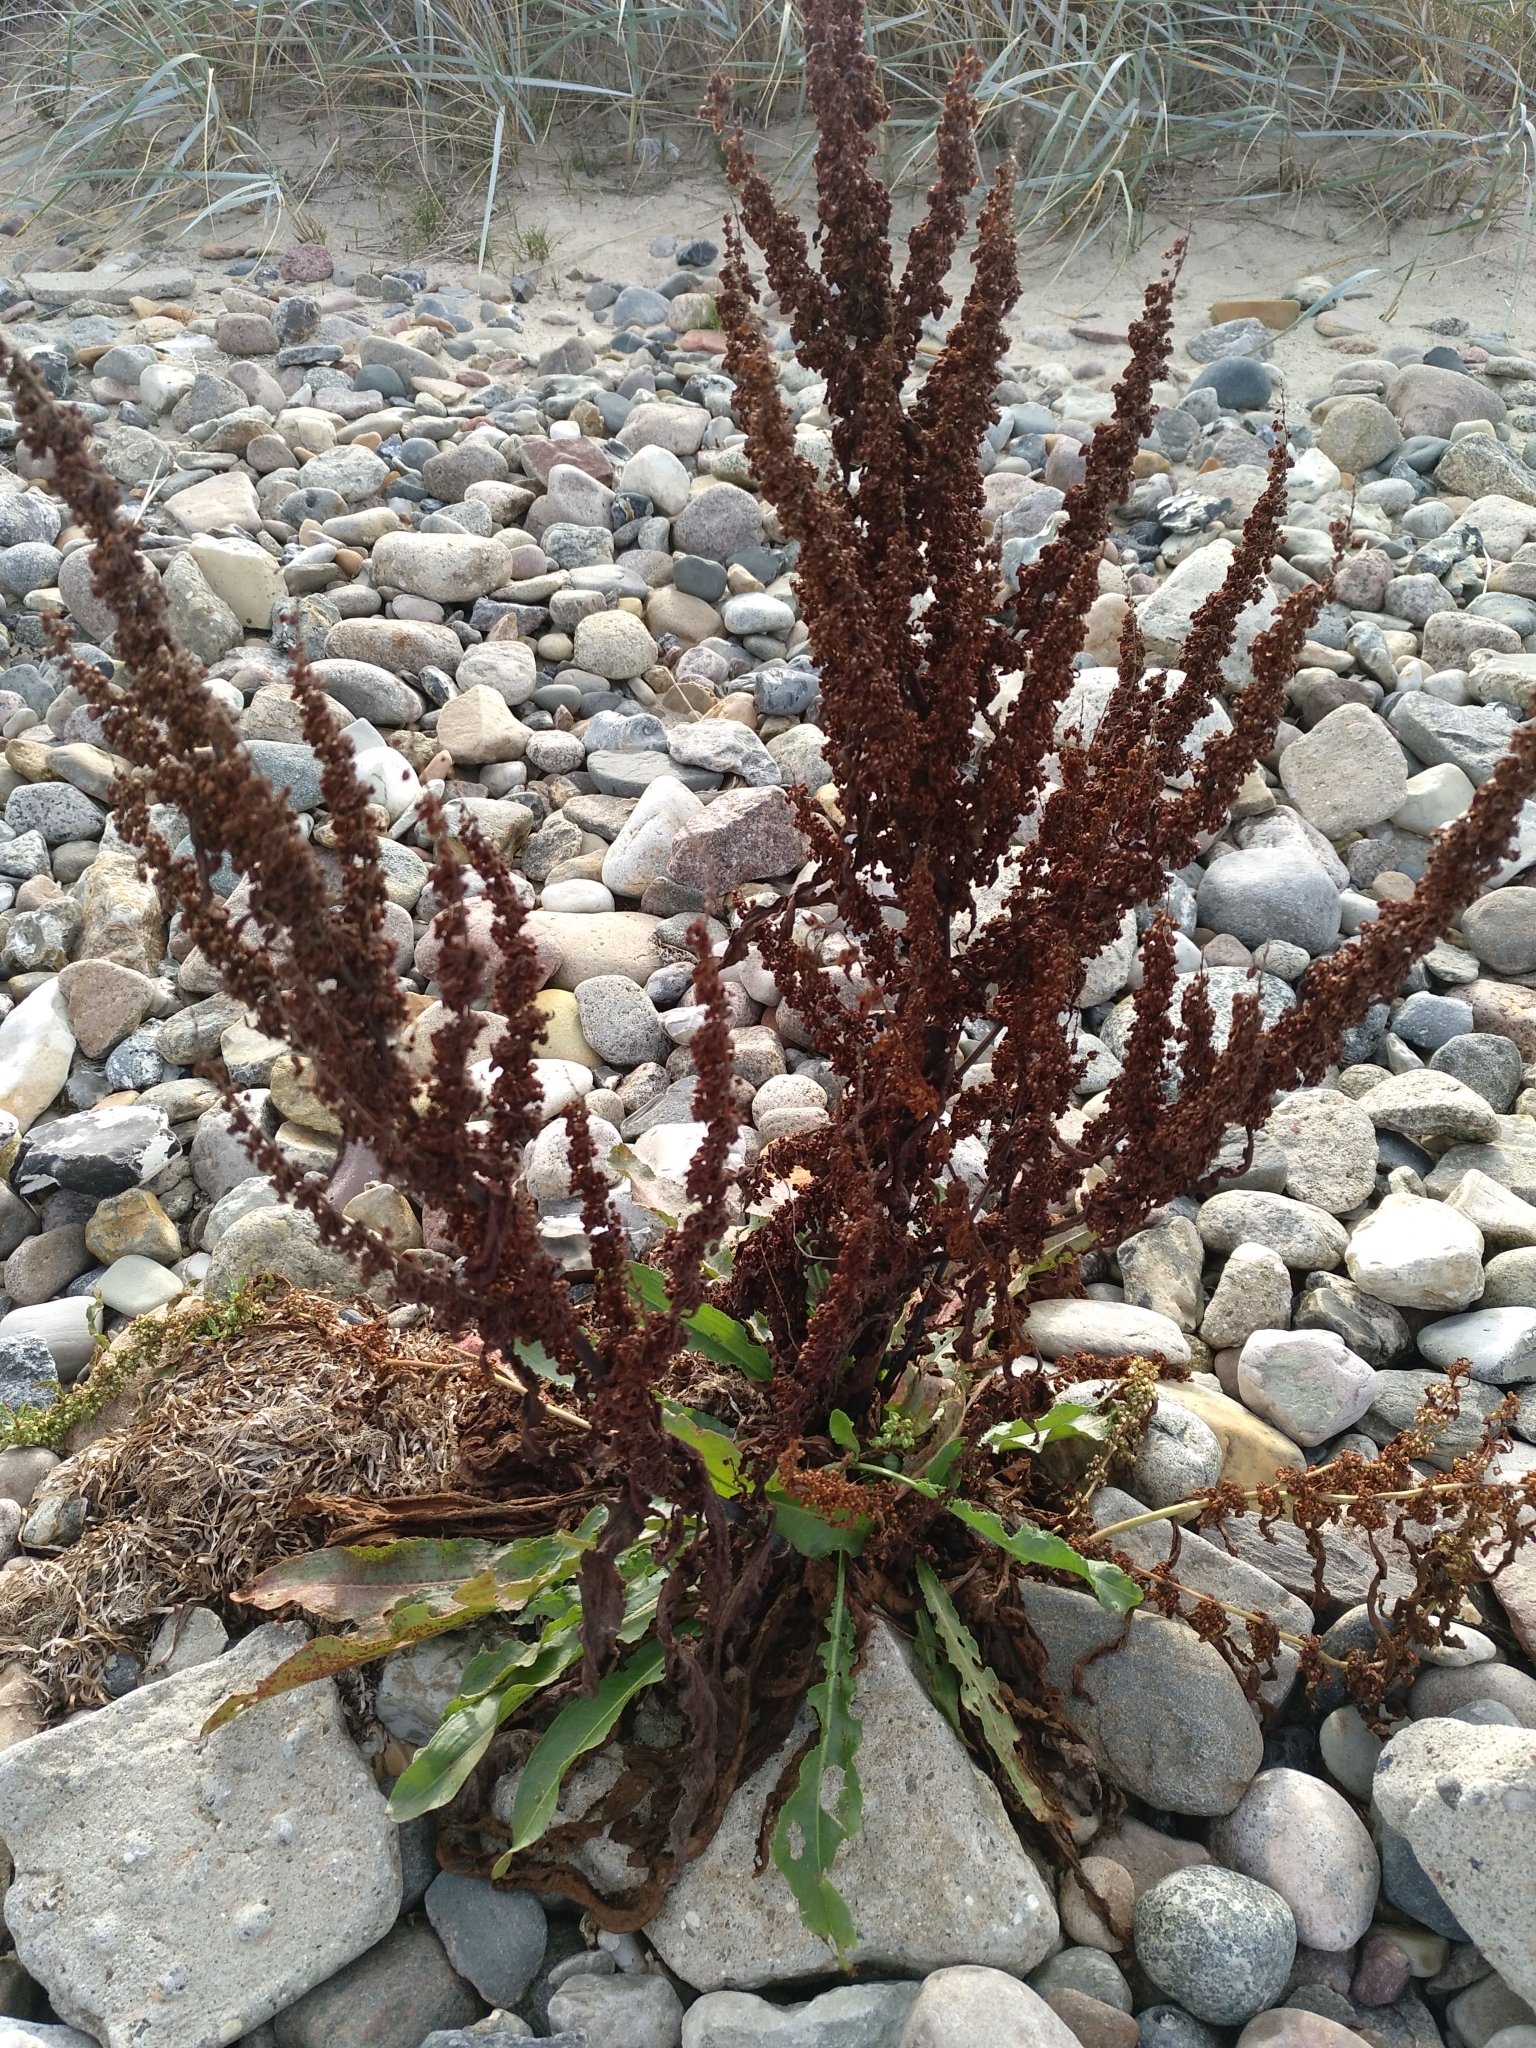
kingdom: Plantae
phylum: Tracheophyta
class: Magnoliopsida
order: Caryophyllales
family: Polygonaceae
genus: Rumex
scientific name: Rumex crispus
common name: Curled dock
